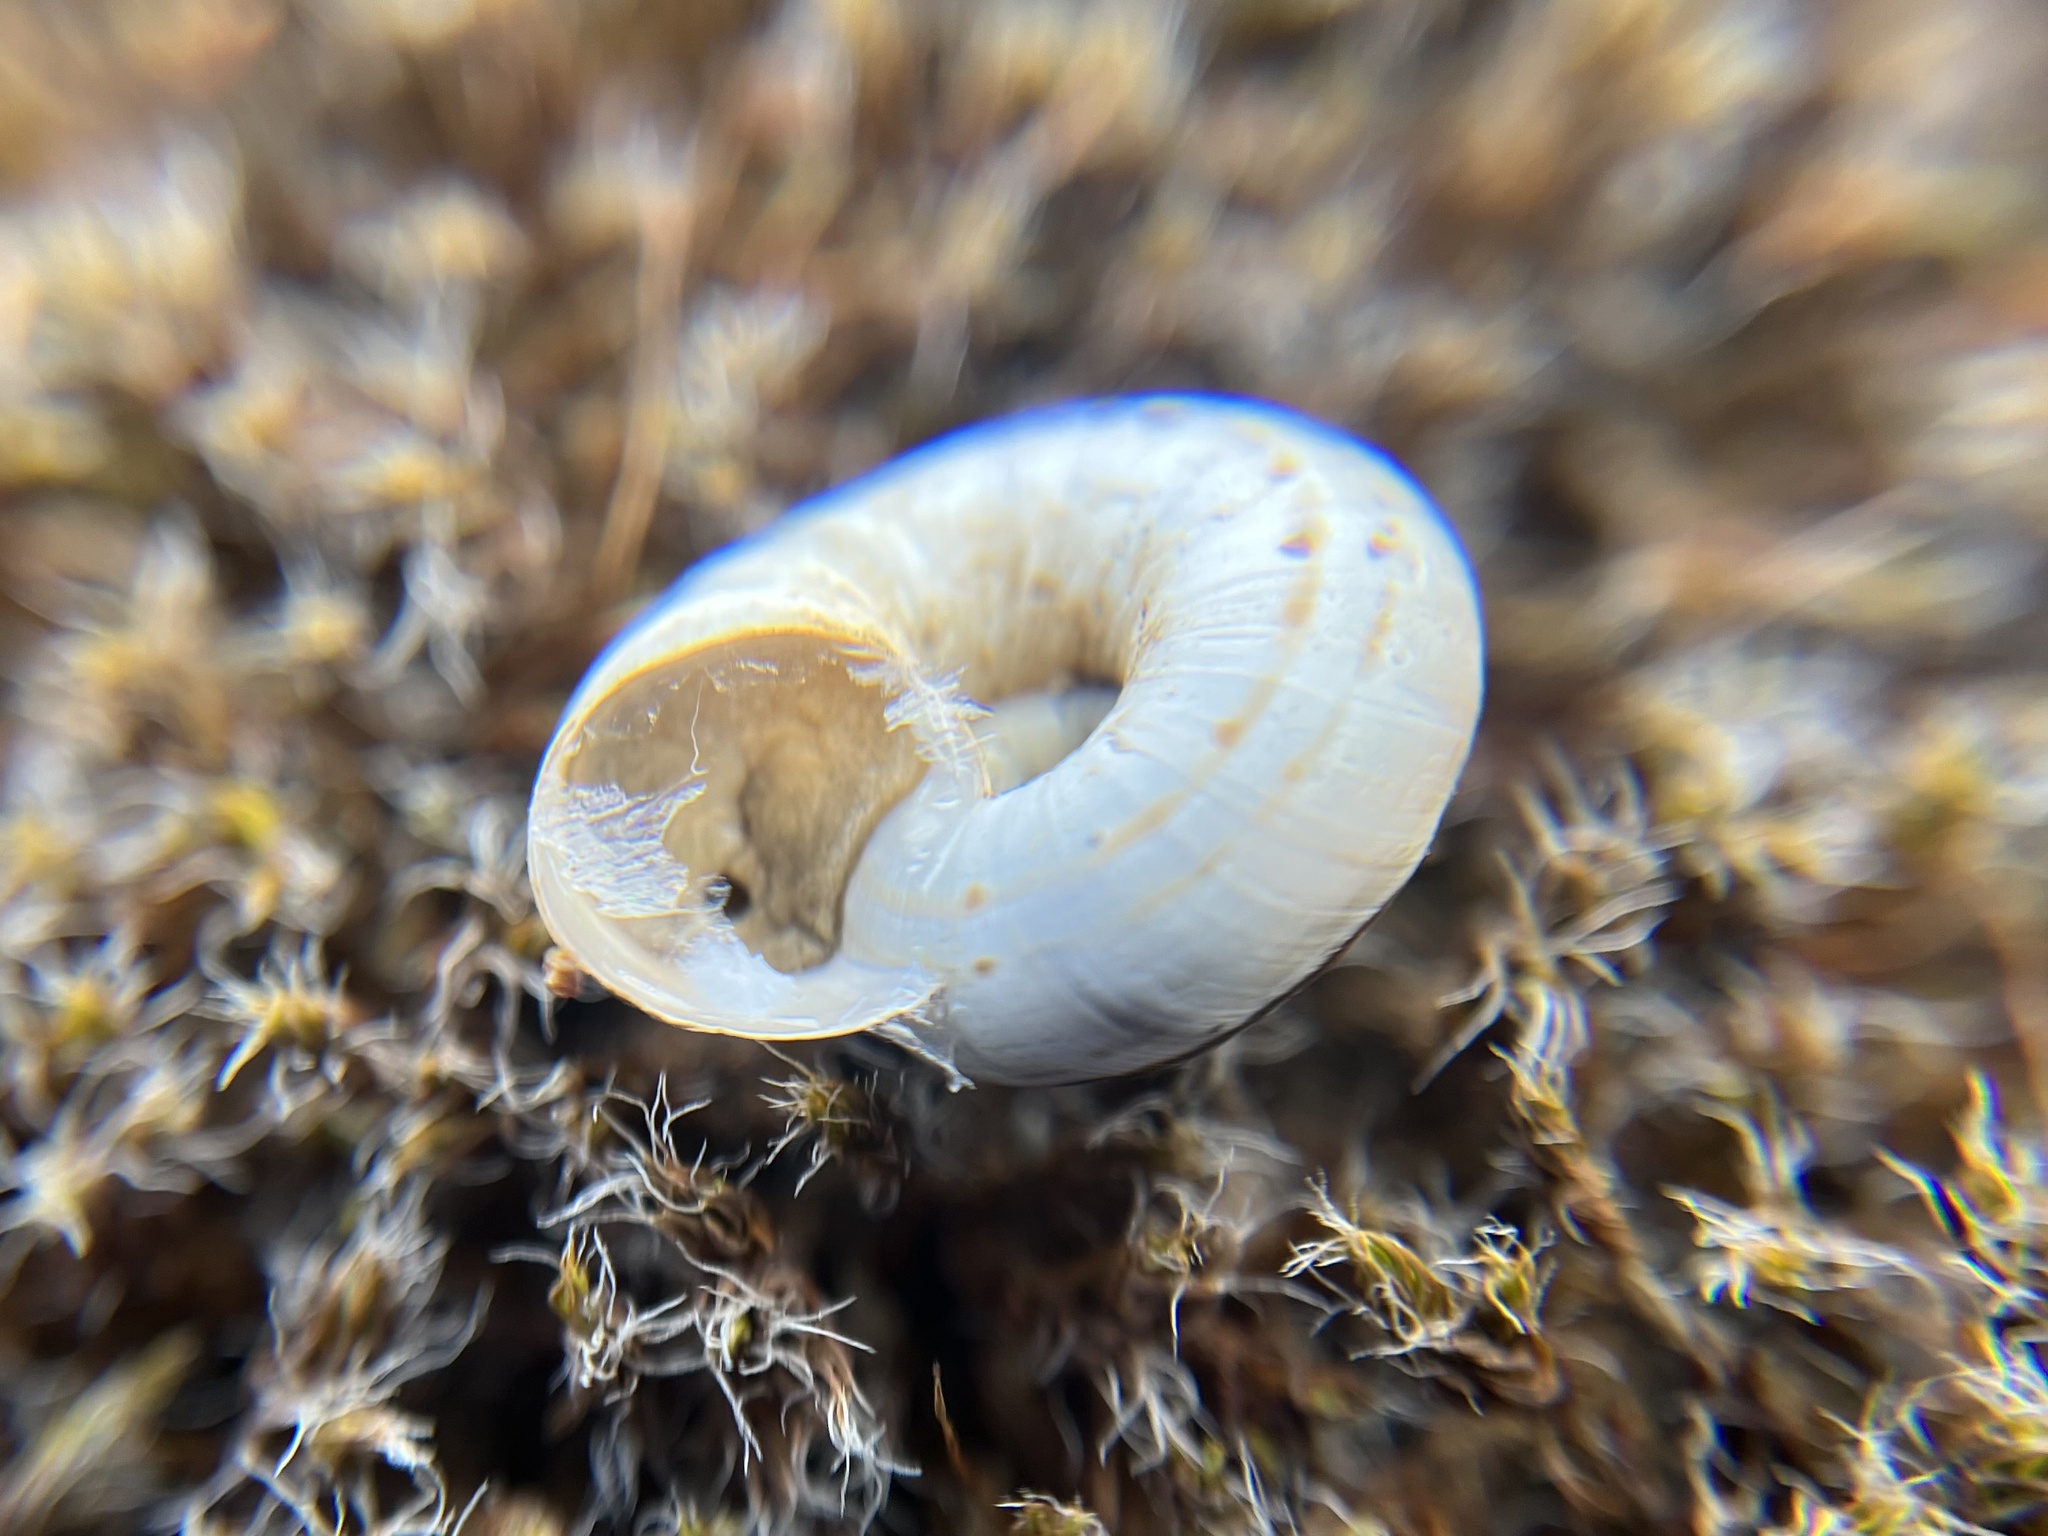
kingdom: Animalia
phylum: Mollusca
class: Gastropoda
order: Stylommatophora
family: Geomitridae
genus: Xerolenta
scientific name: Xerolenta obvia
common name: White heath snail
